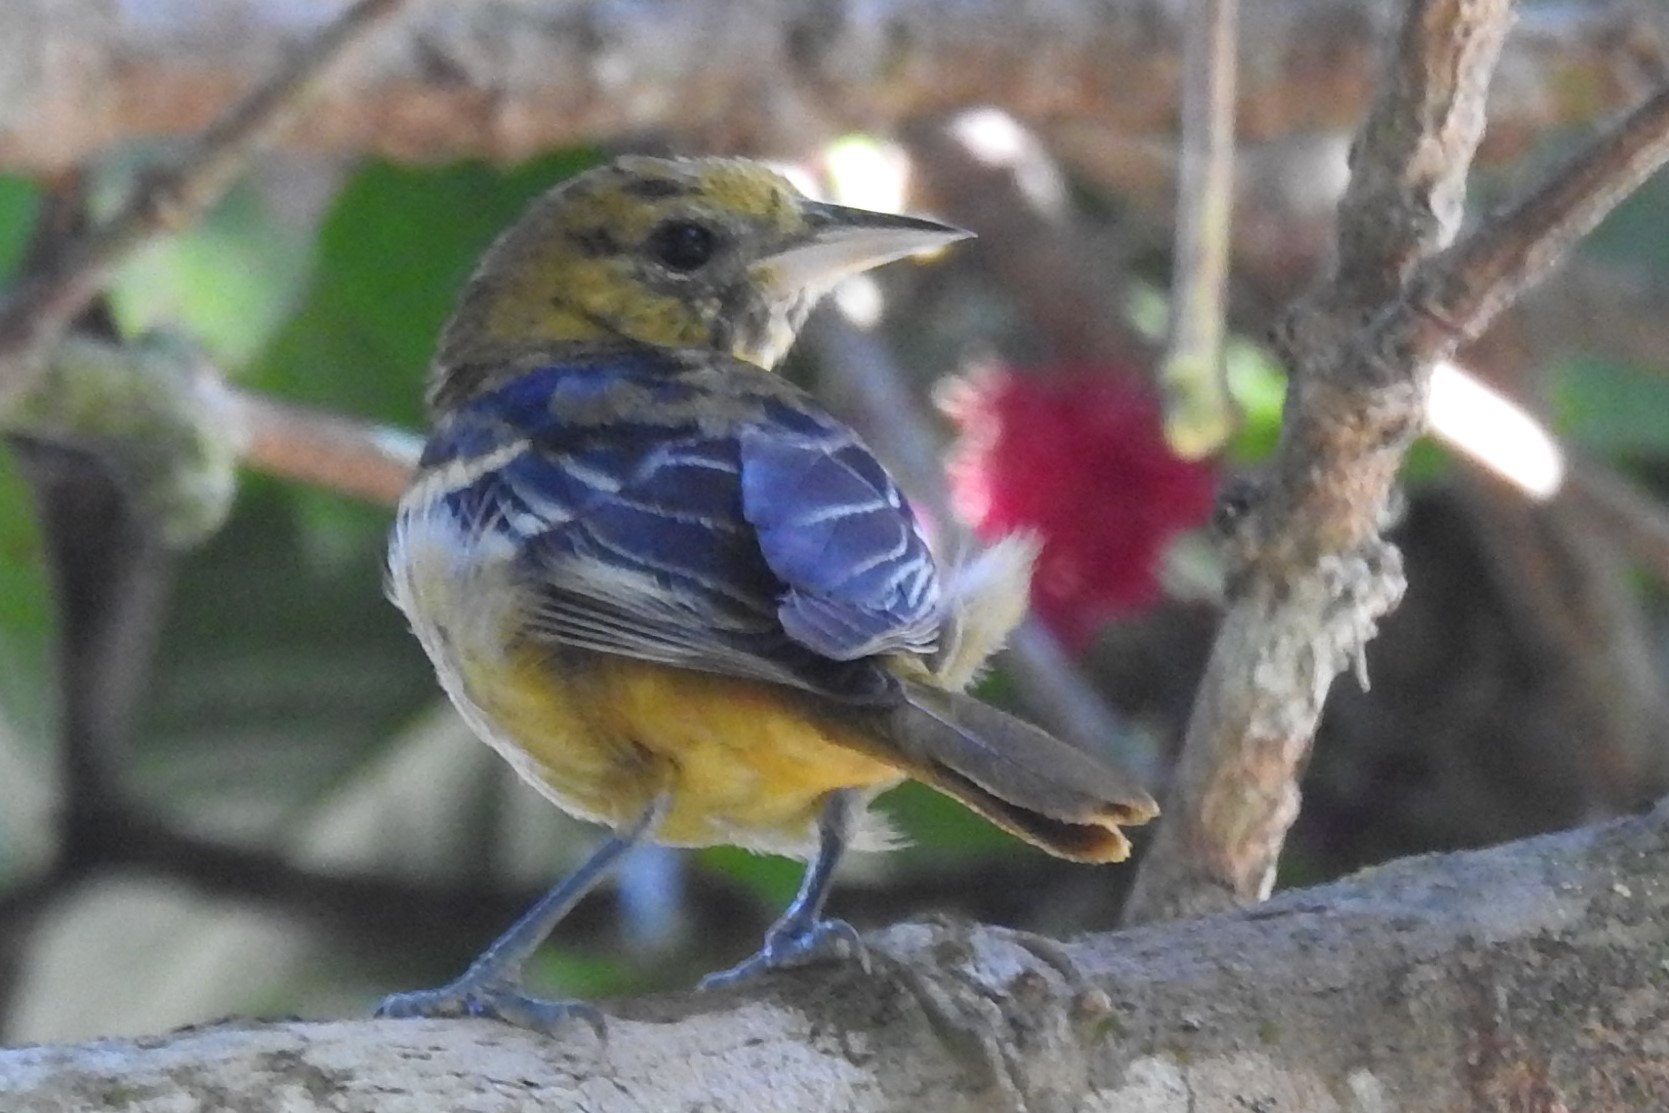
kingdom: Animalia
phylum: Chordata
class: Aves
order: Passeriformes
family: Icteridae
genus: Icterus
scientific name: Icterus galbula
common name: Baltimore oriole
